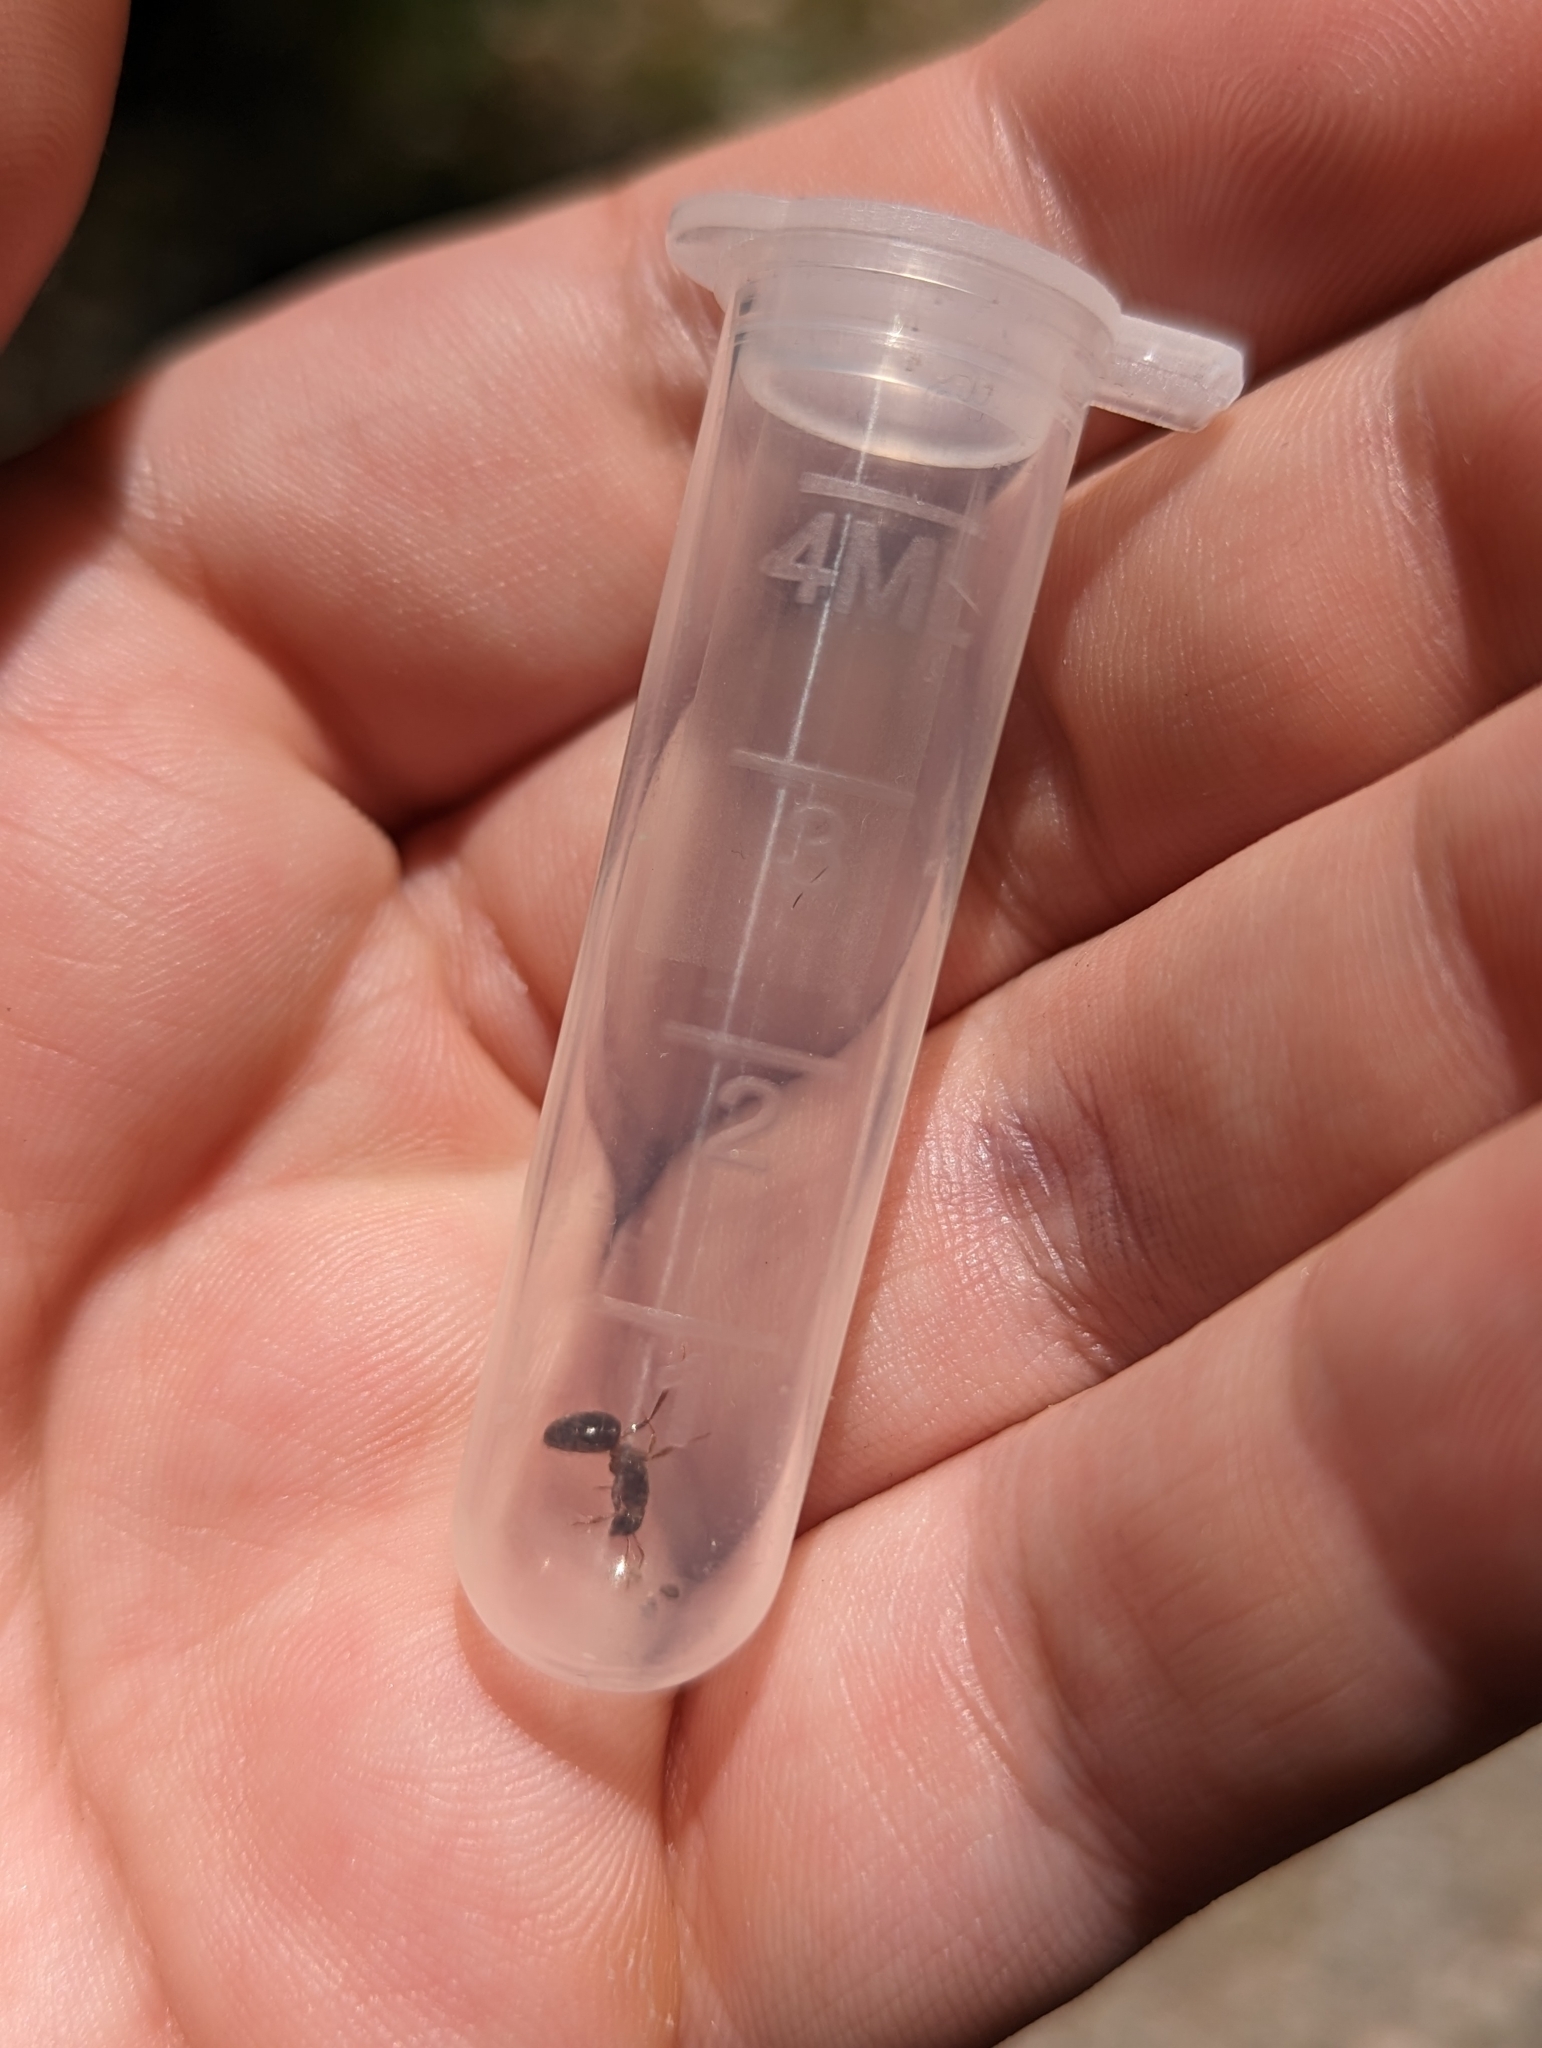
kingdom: Animalia
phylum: Arthropoda
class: Insecta
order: Hymenoptera
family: Formicidae
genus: Lasius
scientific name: Lasius aphidicola
